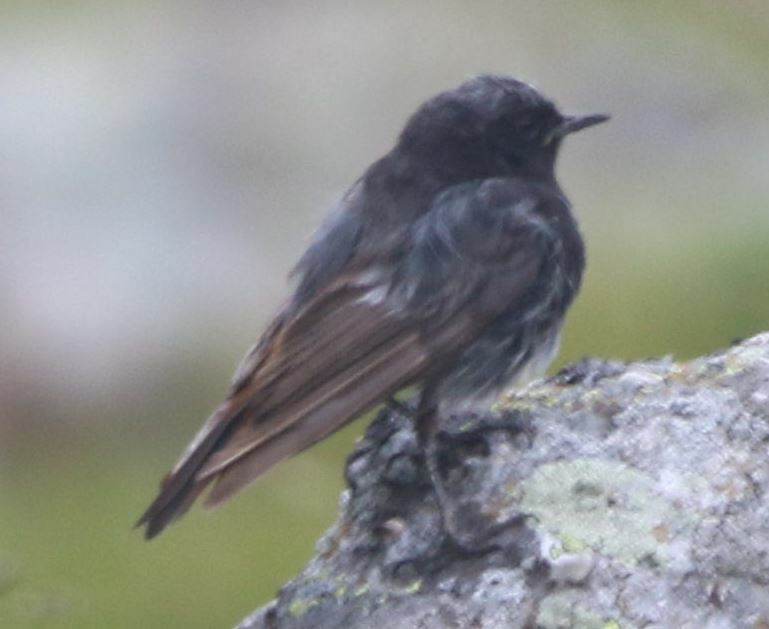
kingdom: Animalia
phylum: Chordata
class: Aves
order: Passeriformes
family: Muscicapidae
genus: Phoenicurus
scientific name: Phoenicurus ochruros
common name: Black redstart
